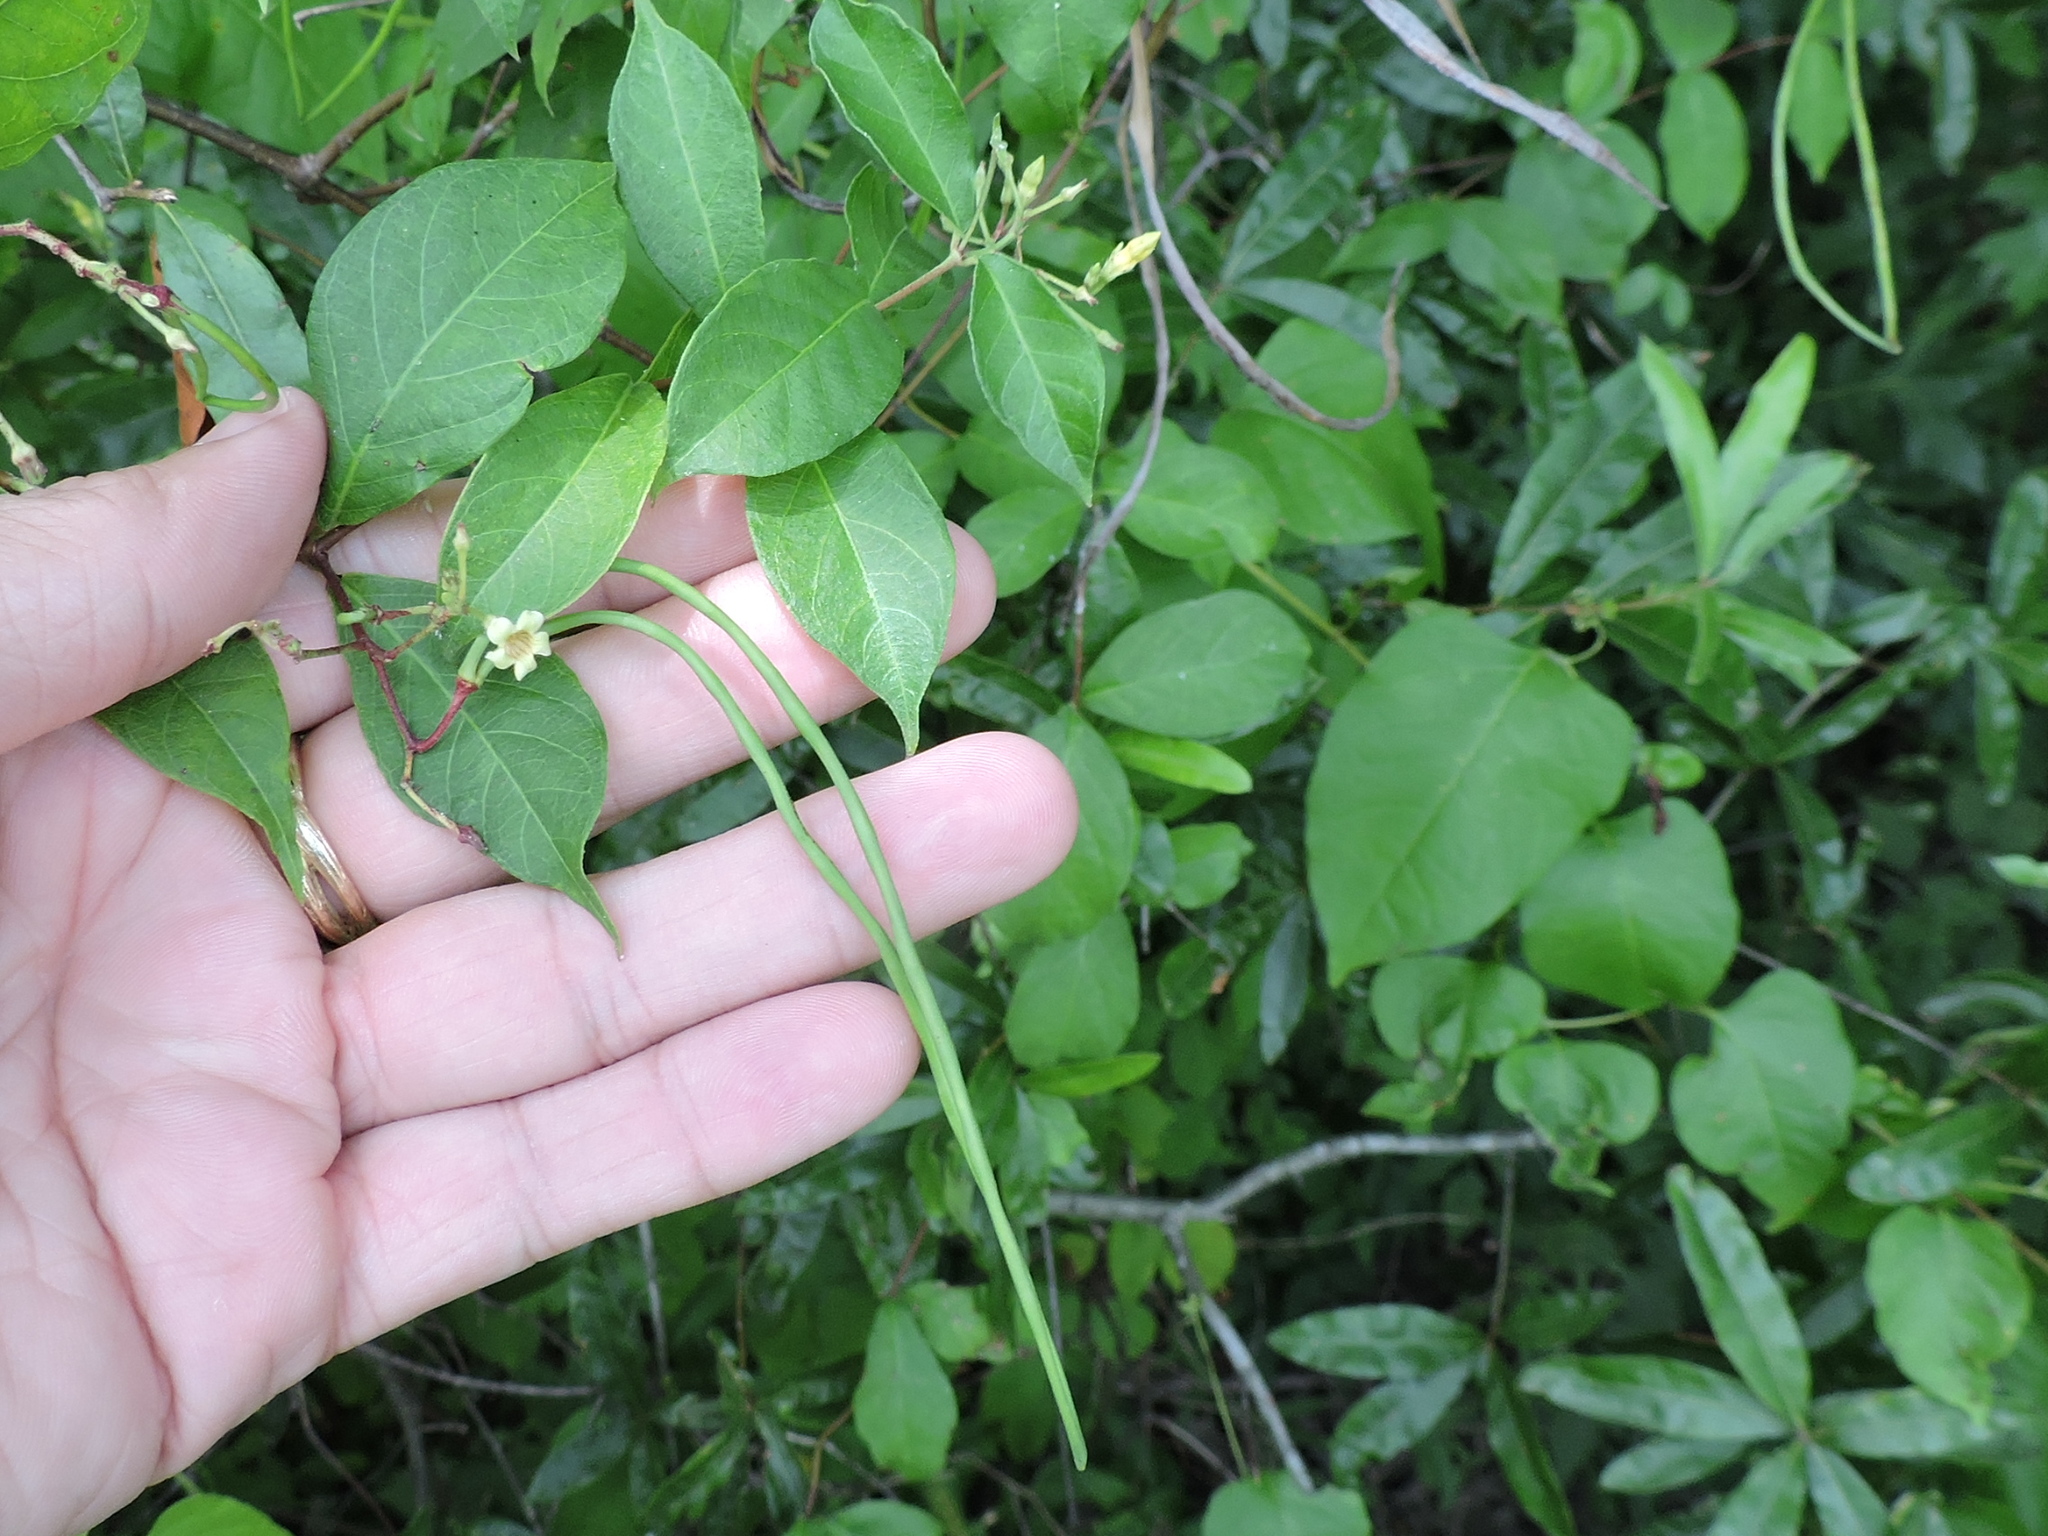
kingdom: Plantae
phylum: Tracheophyta
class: Magnoliopsida
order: Gentianales
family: Apocynaceae
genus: Thyrsanthella
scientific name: Thyrsanthella difformis
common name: Climbing dogbane
